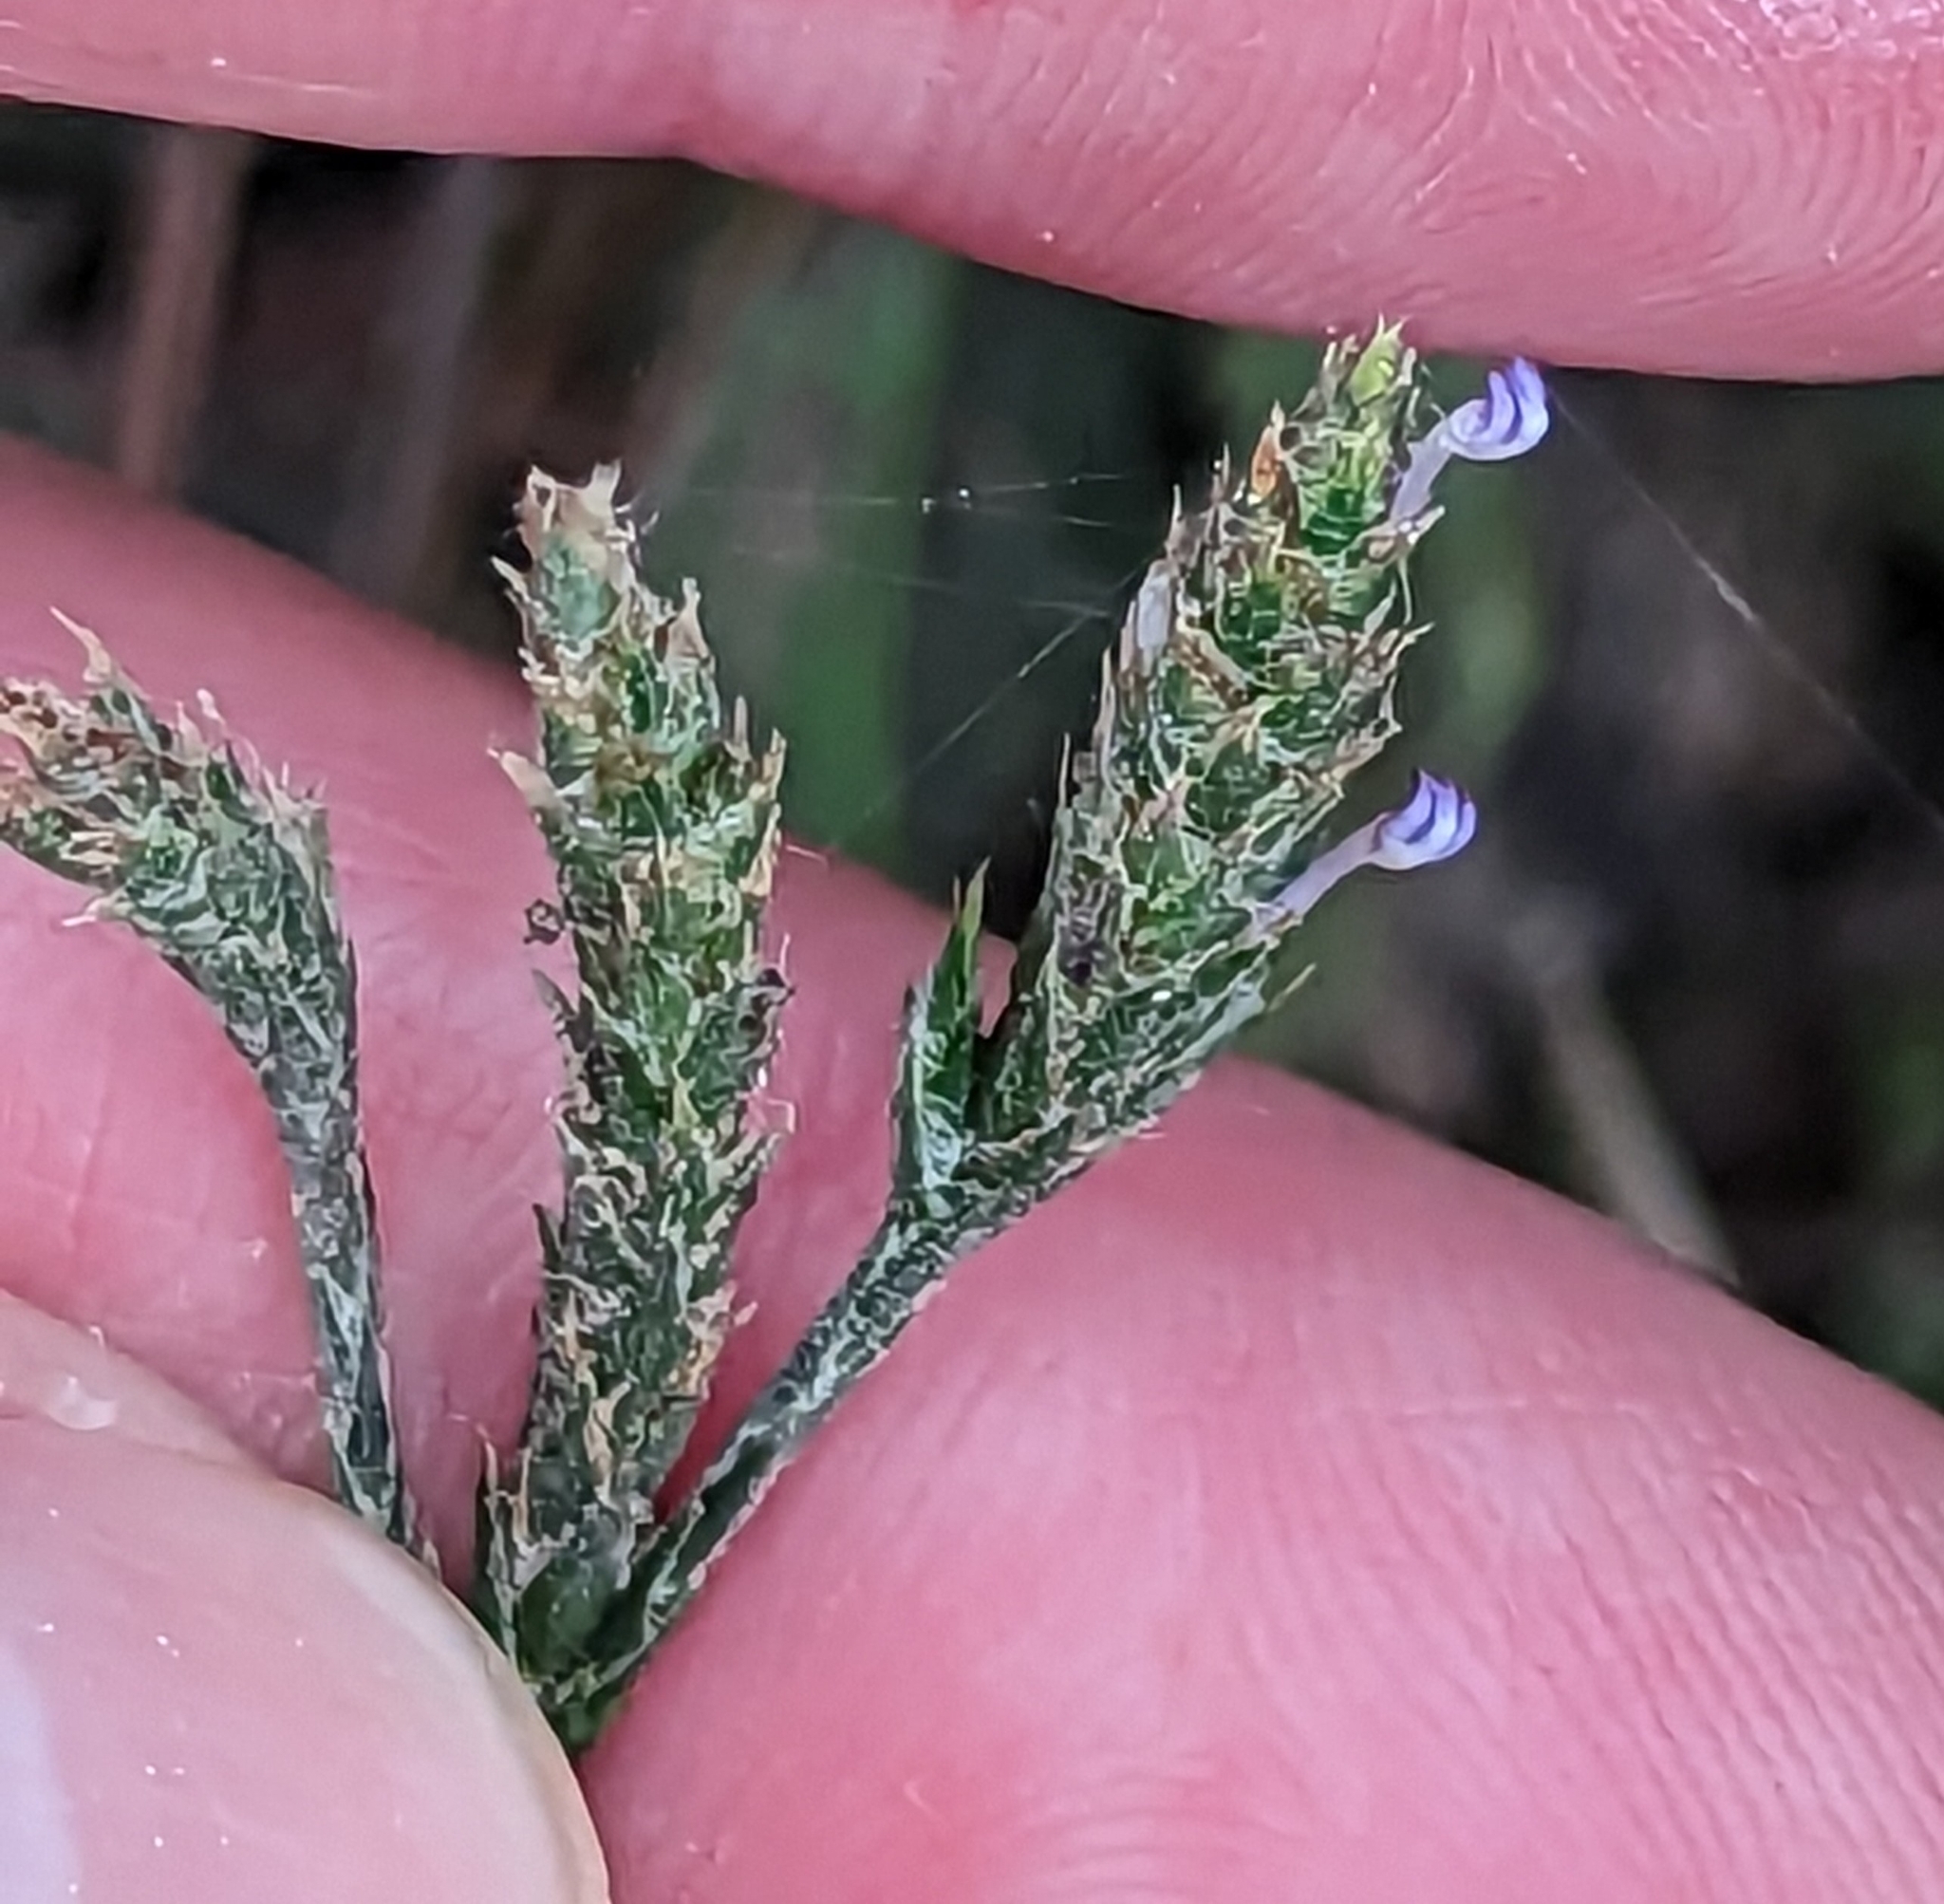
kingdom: Plantae
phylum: Tracheophyta
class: Magnoliopsida
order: Lamiales
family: Acanthaceae
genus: Elytraria
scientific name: Elytraria imbricata
